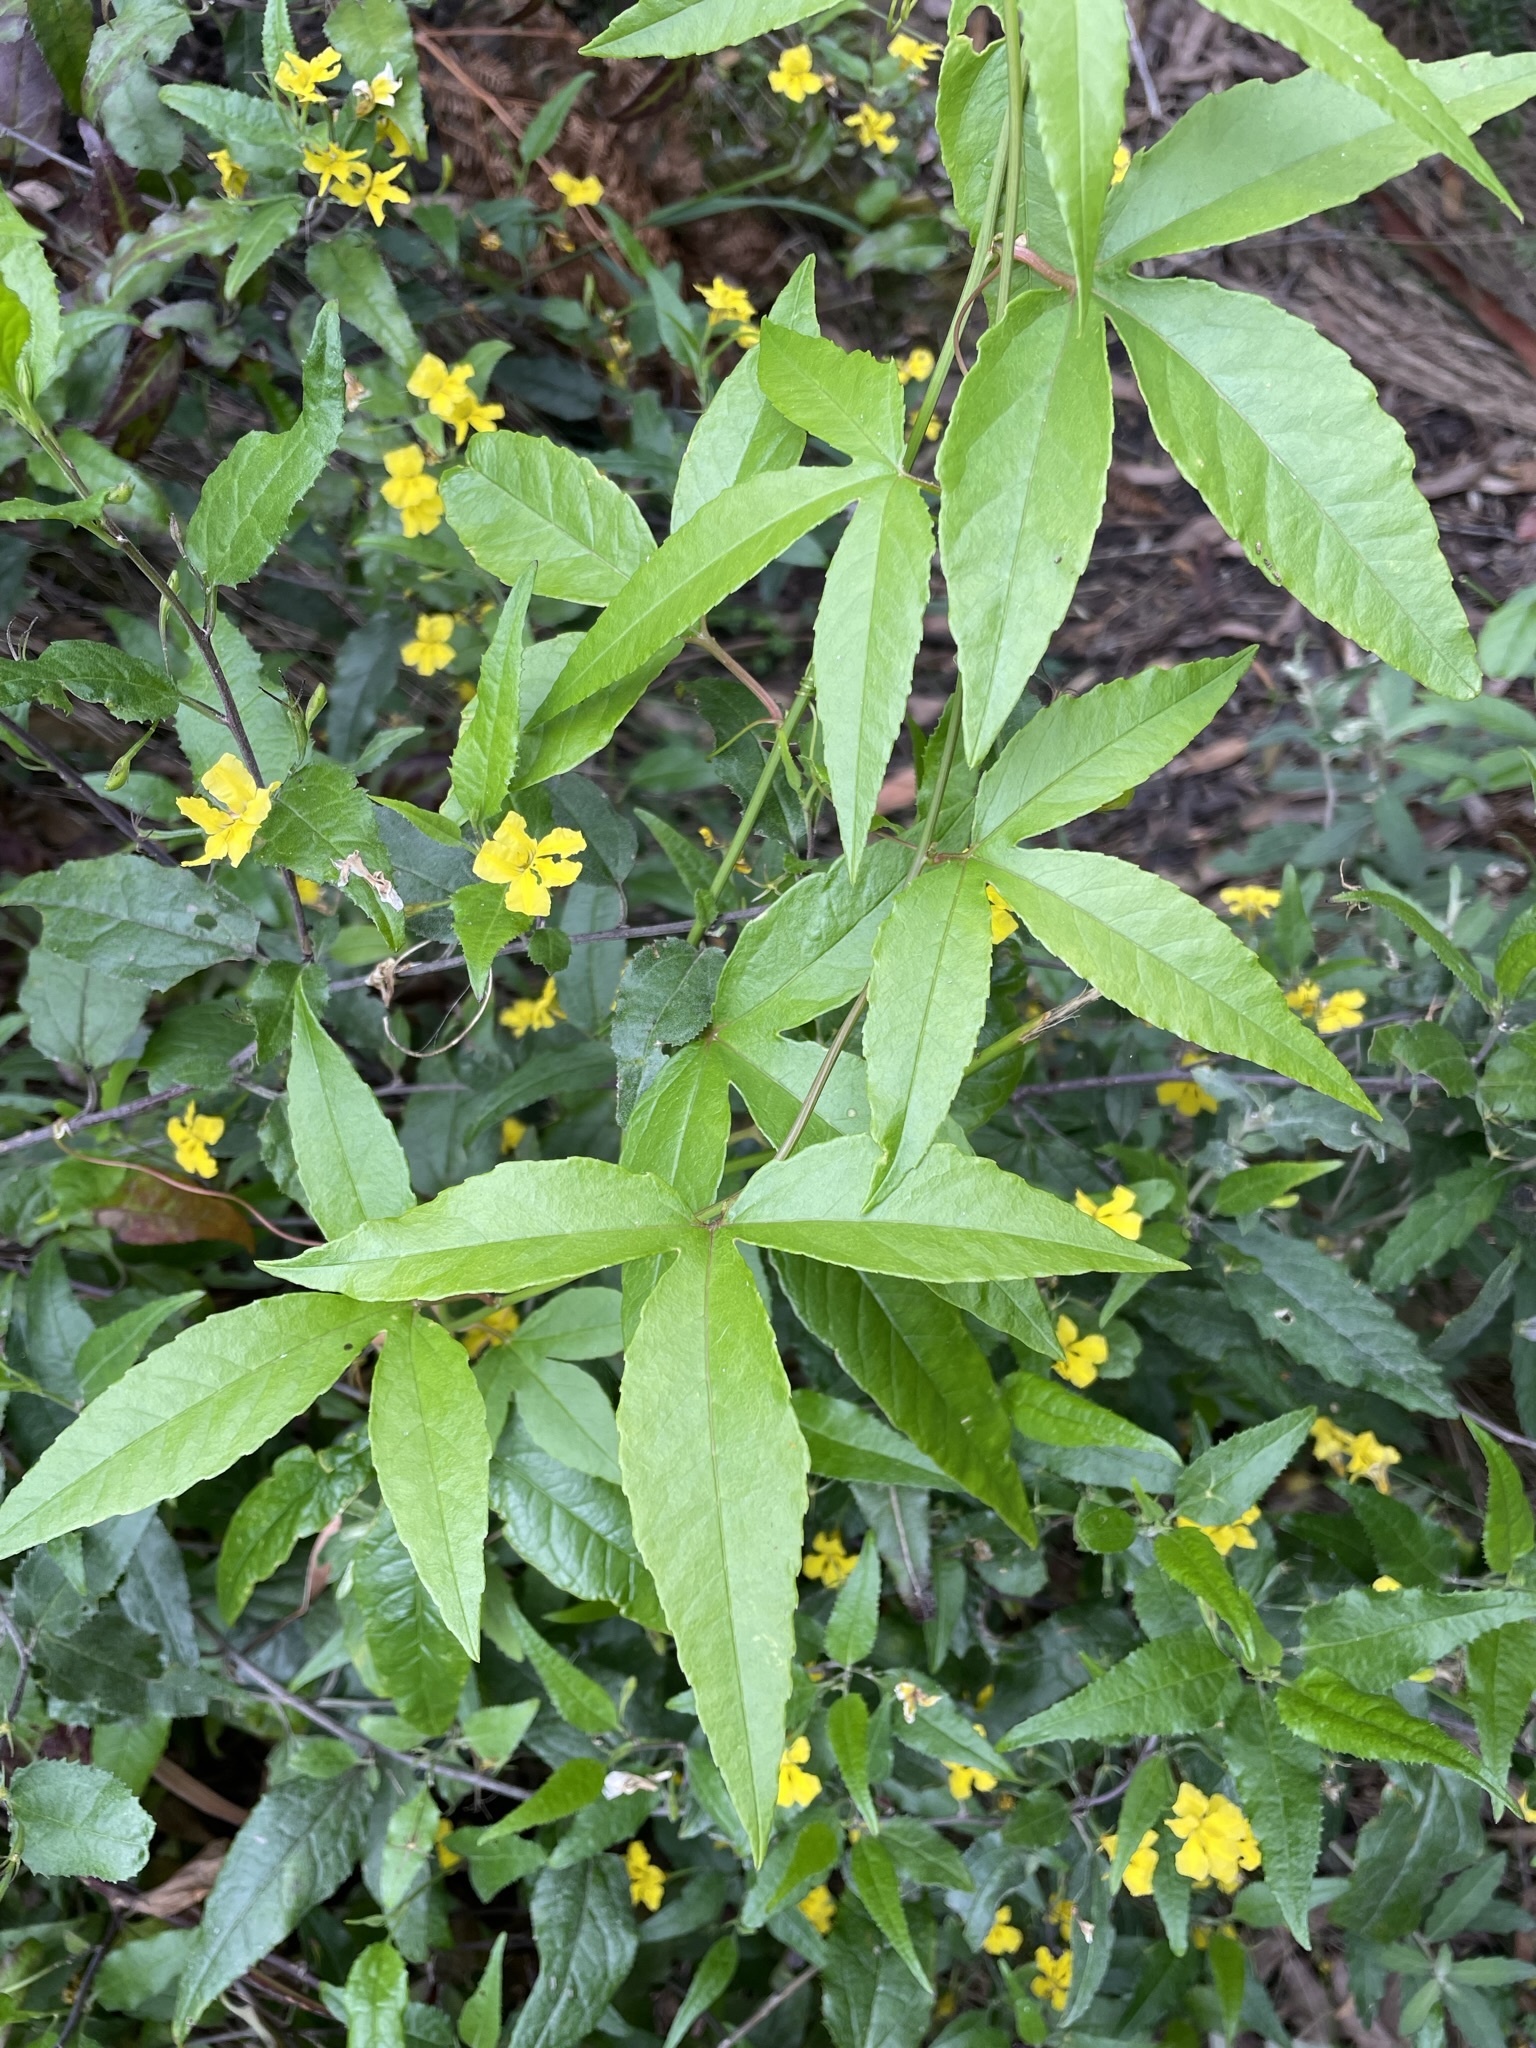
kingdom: Plantae
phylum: Tracheophyta
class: Magnoliopsida
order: Malpighiales
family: Passifloraceae
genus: Passiflora
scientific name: Passiflora tarminiana
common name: Banana poka
